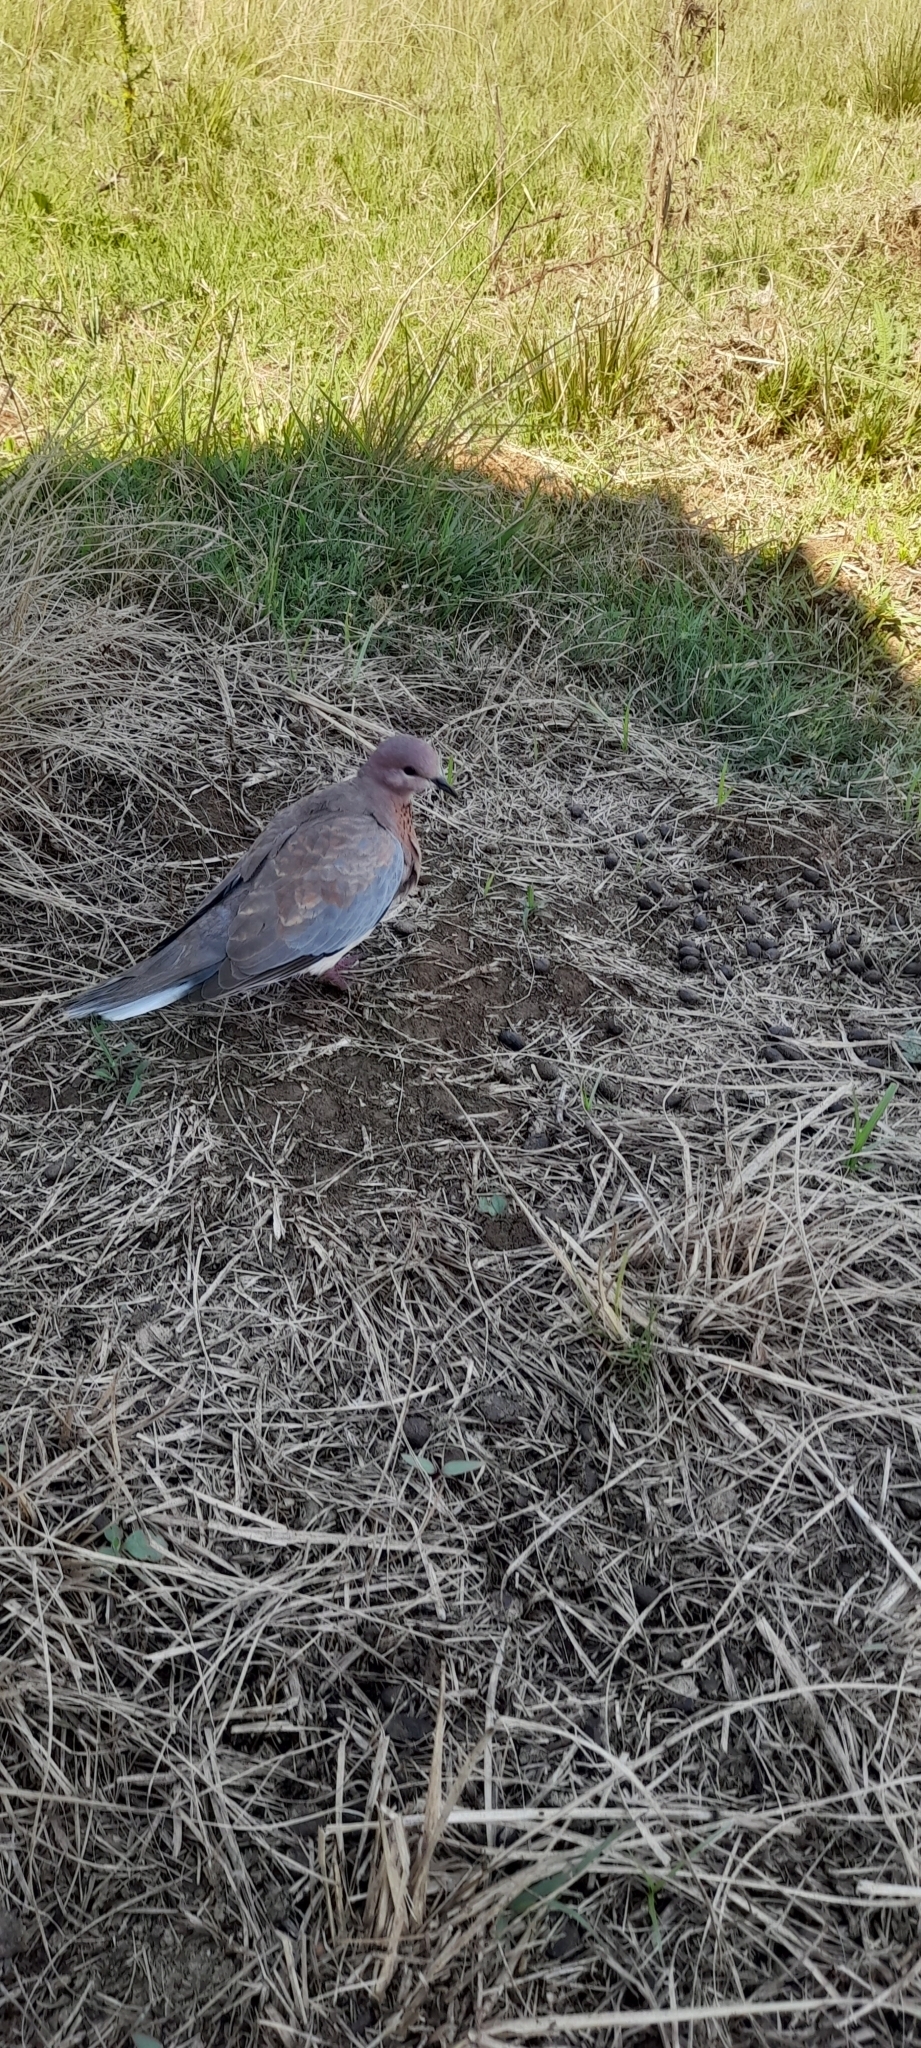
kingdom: Animalia
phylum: Chordata
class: Aves
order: Columbiformes
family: Columbidae
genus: Spilopelia
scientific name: Spilopelia senegalensis
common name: Laughing dove
